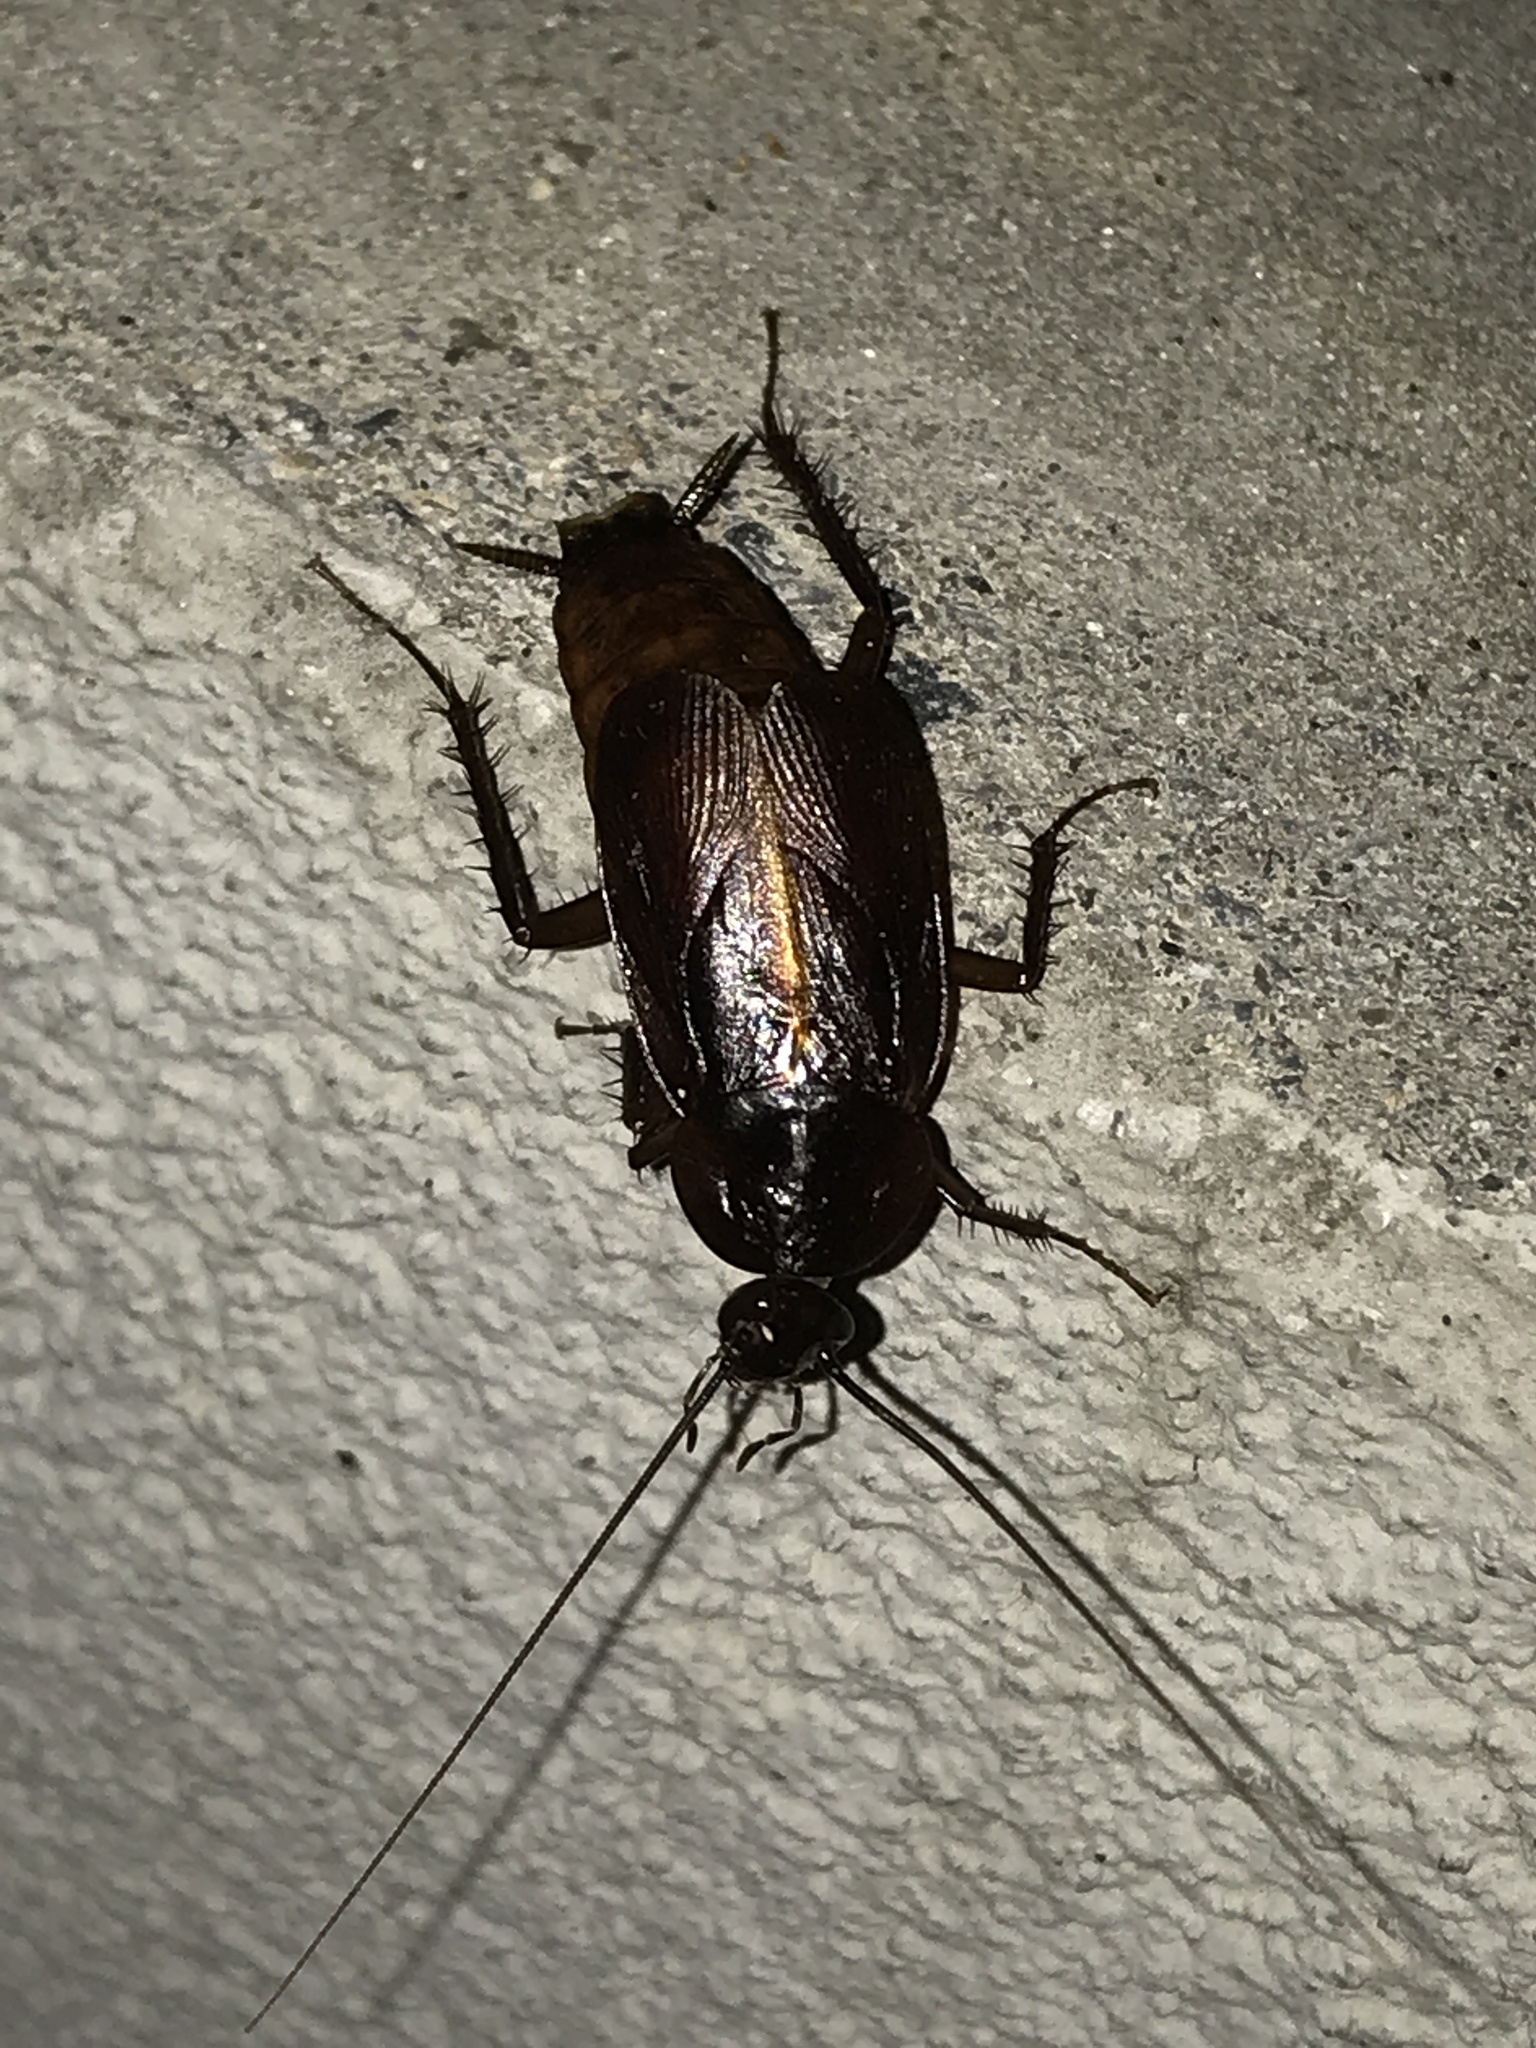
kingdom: Animalia
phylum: Arthropoda
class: Insecta
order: Blattodea
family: Blattidae
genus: Blatta
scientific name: Blatta orientalis
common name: Oriental cockroach
